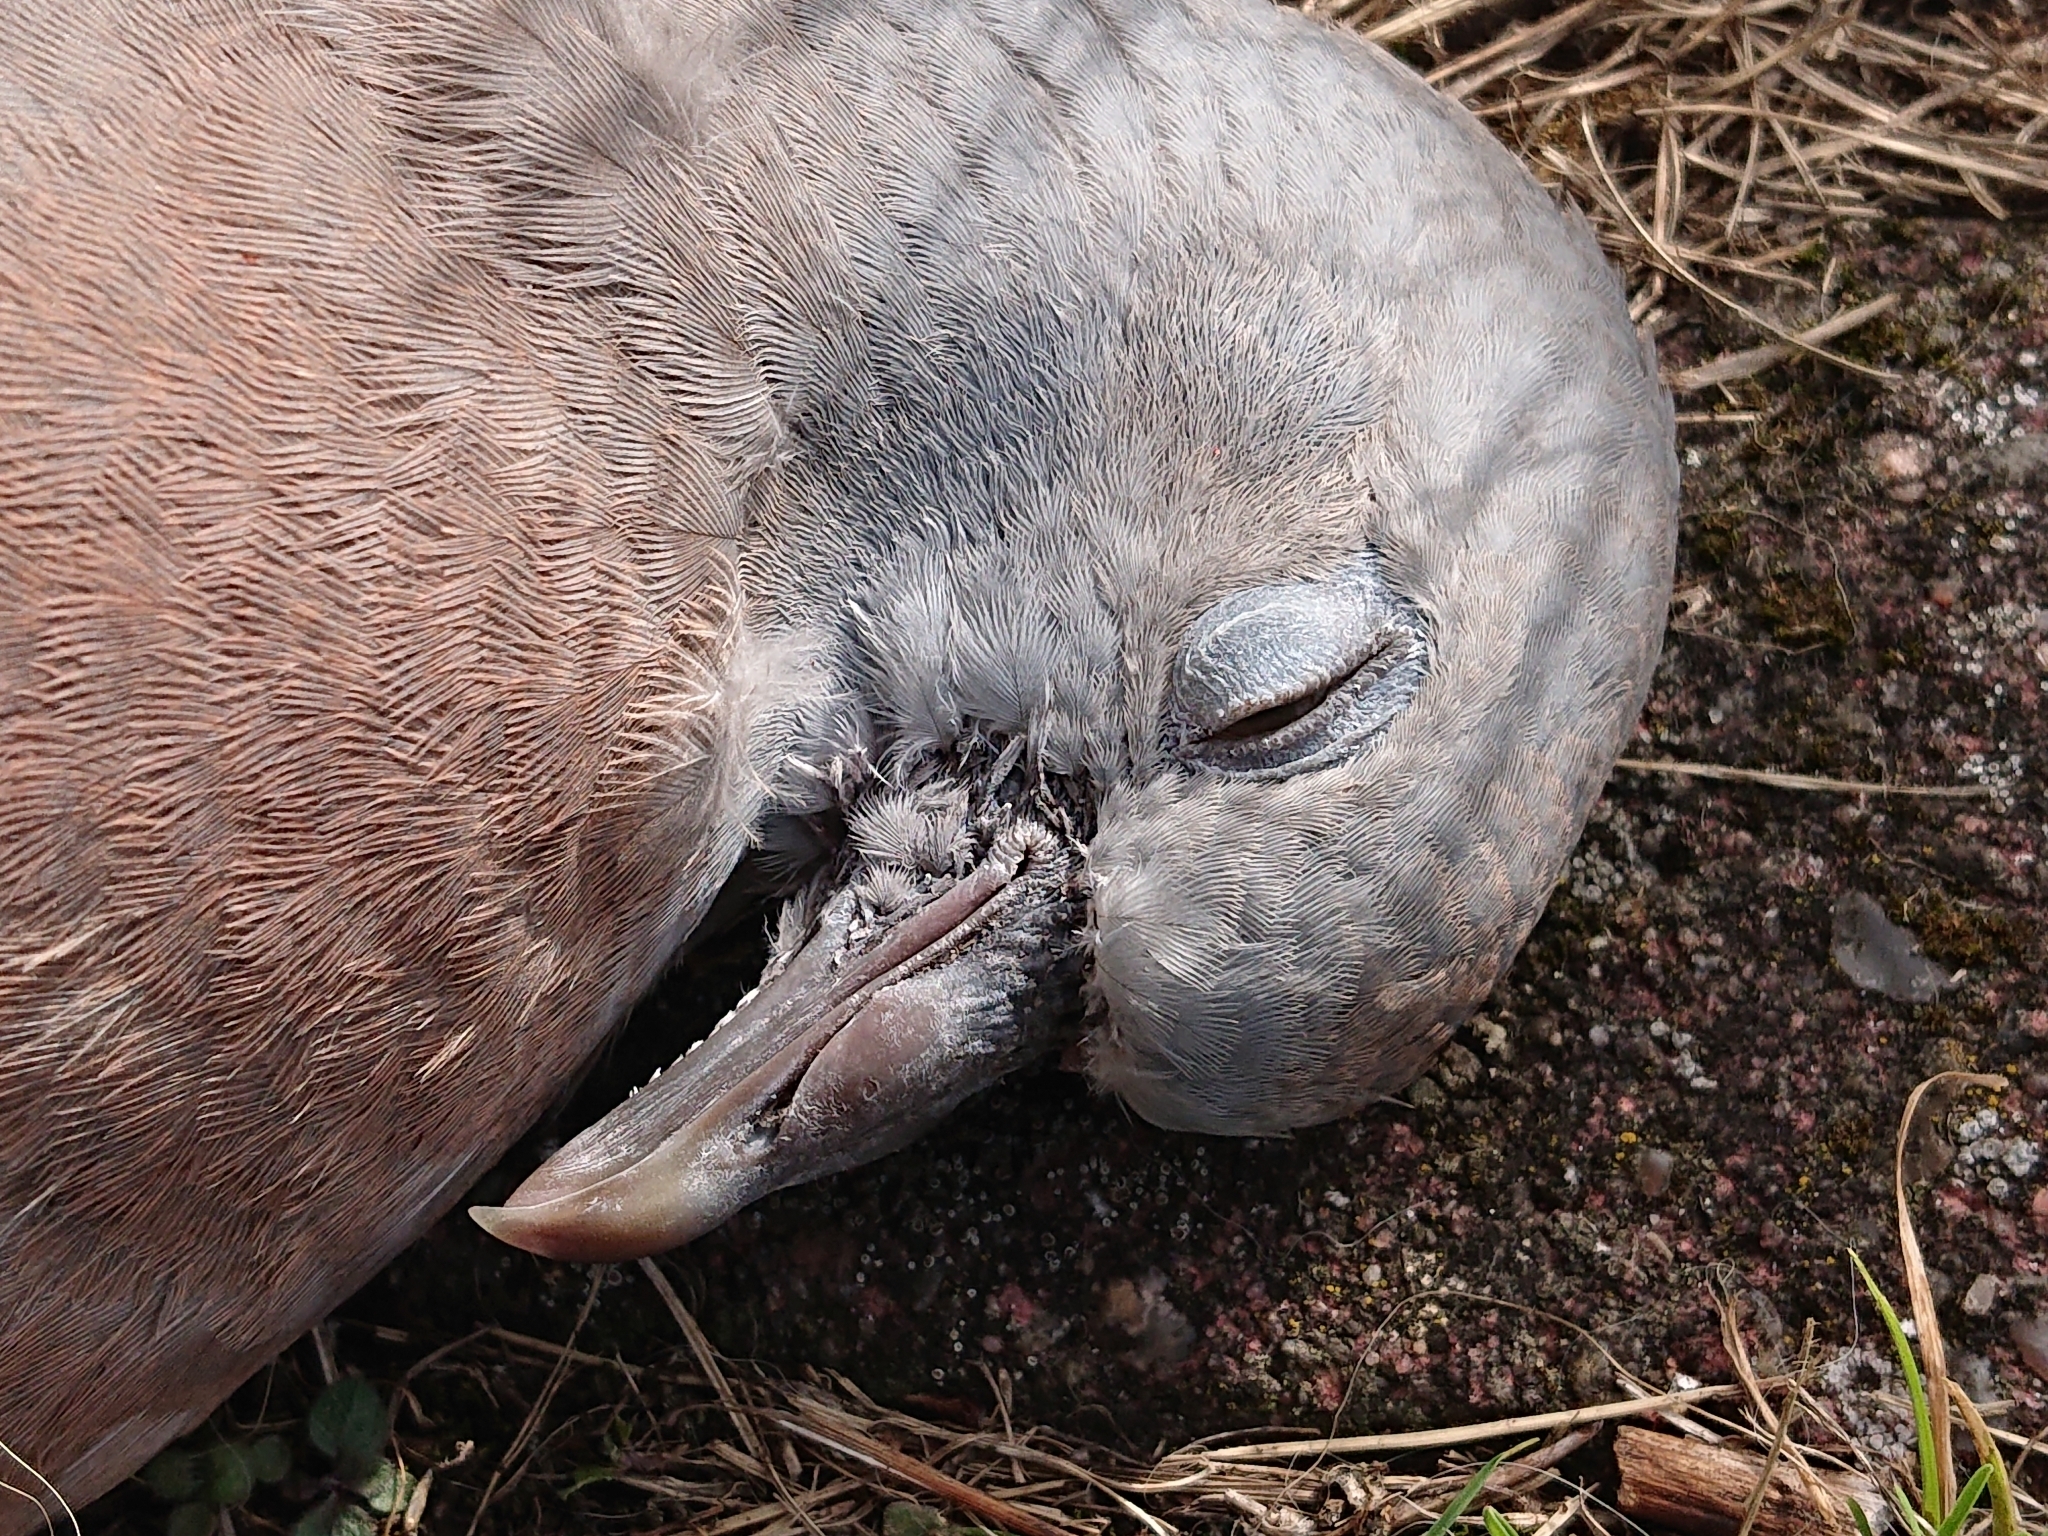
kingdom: Animalia
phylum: Chordata
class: Aves
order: Columbiformes
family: Columbidae
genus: Columba
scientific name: Columba palumbus
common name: Common wood pigeon
